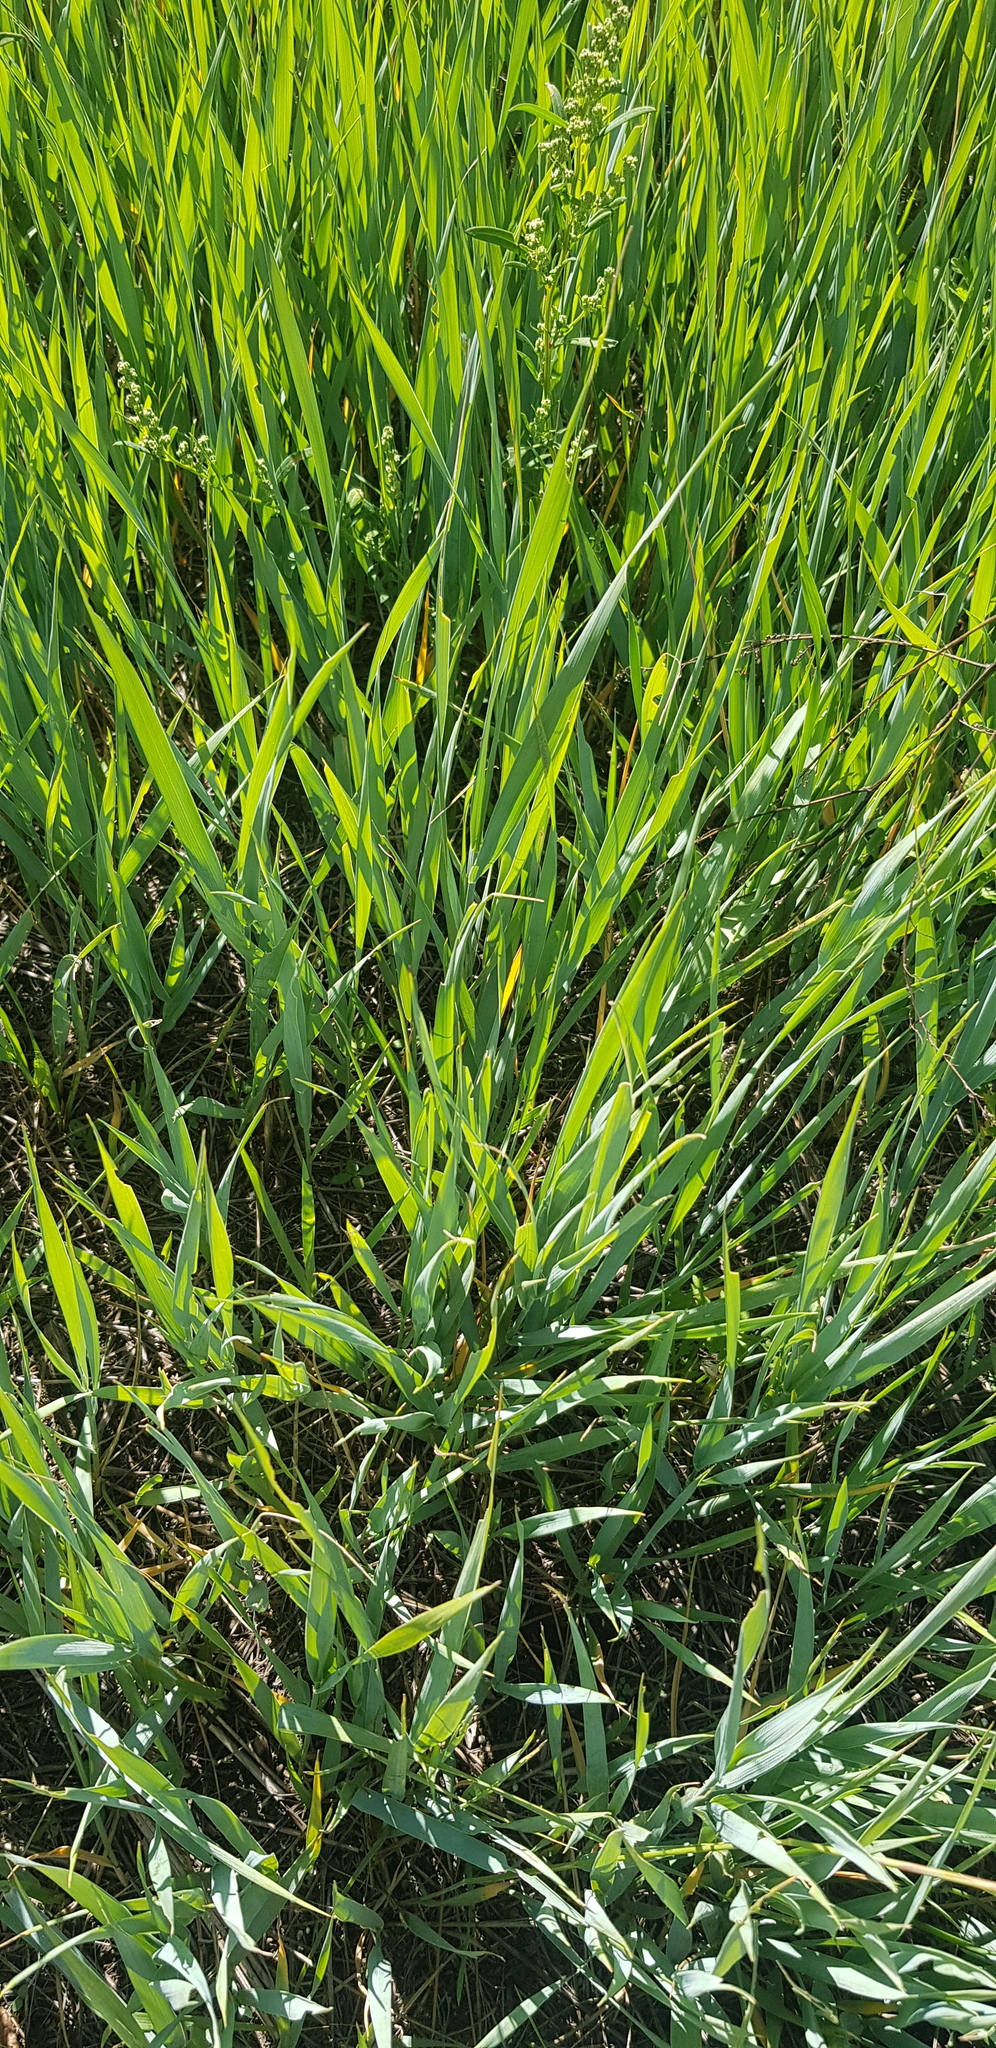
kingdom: Plantae
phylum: Tracheophyta
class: Liliopsida
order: Poales
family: Poaceae
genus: Leymus
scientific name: Leymus chinensis
